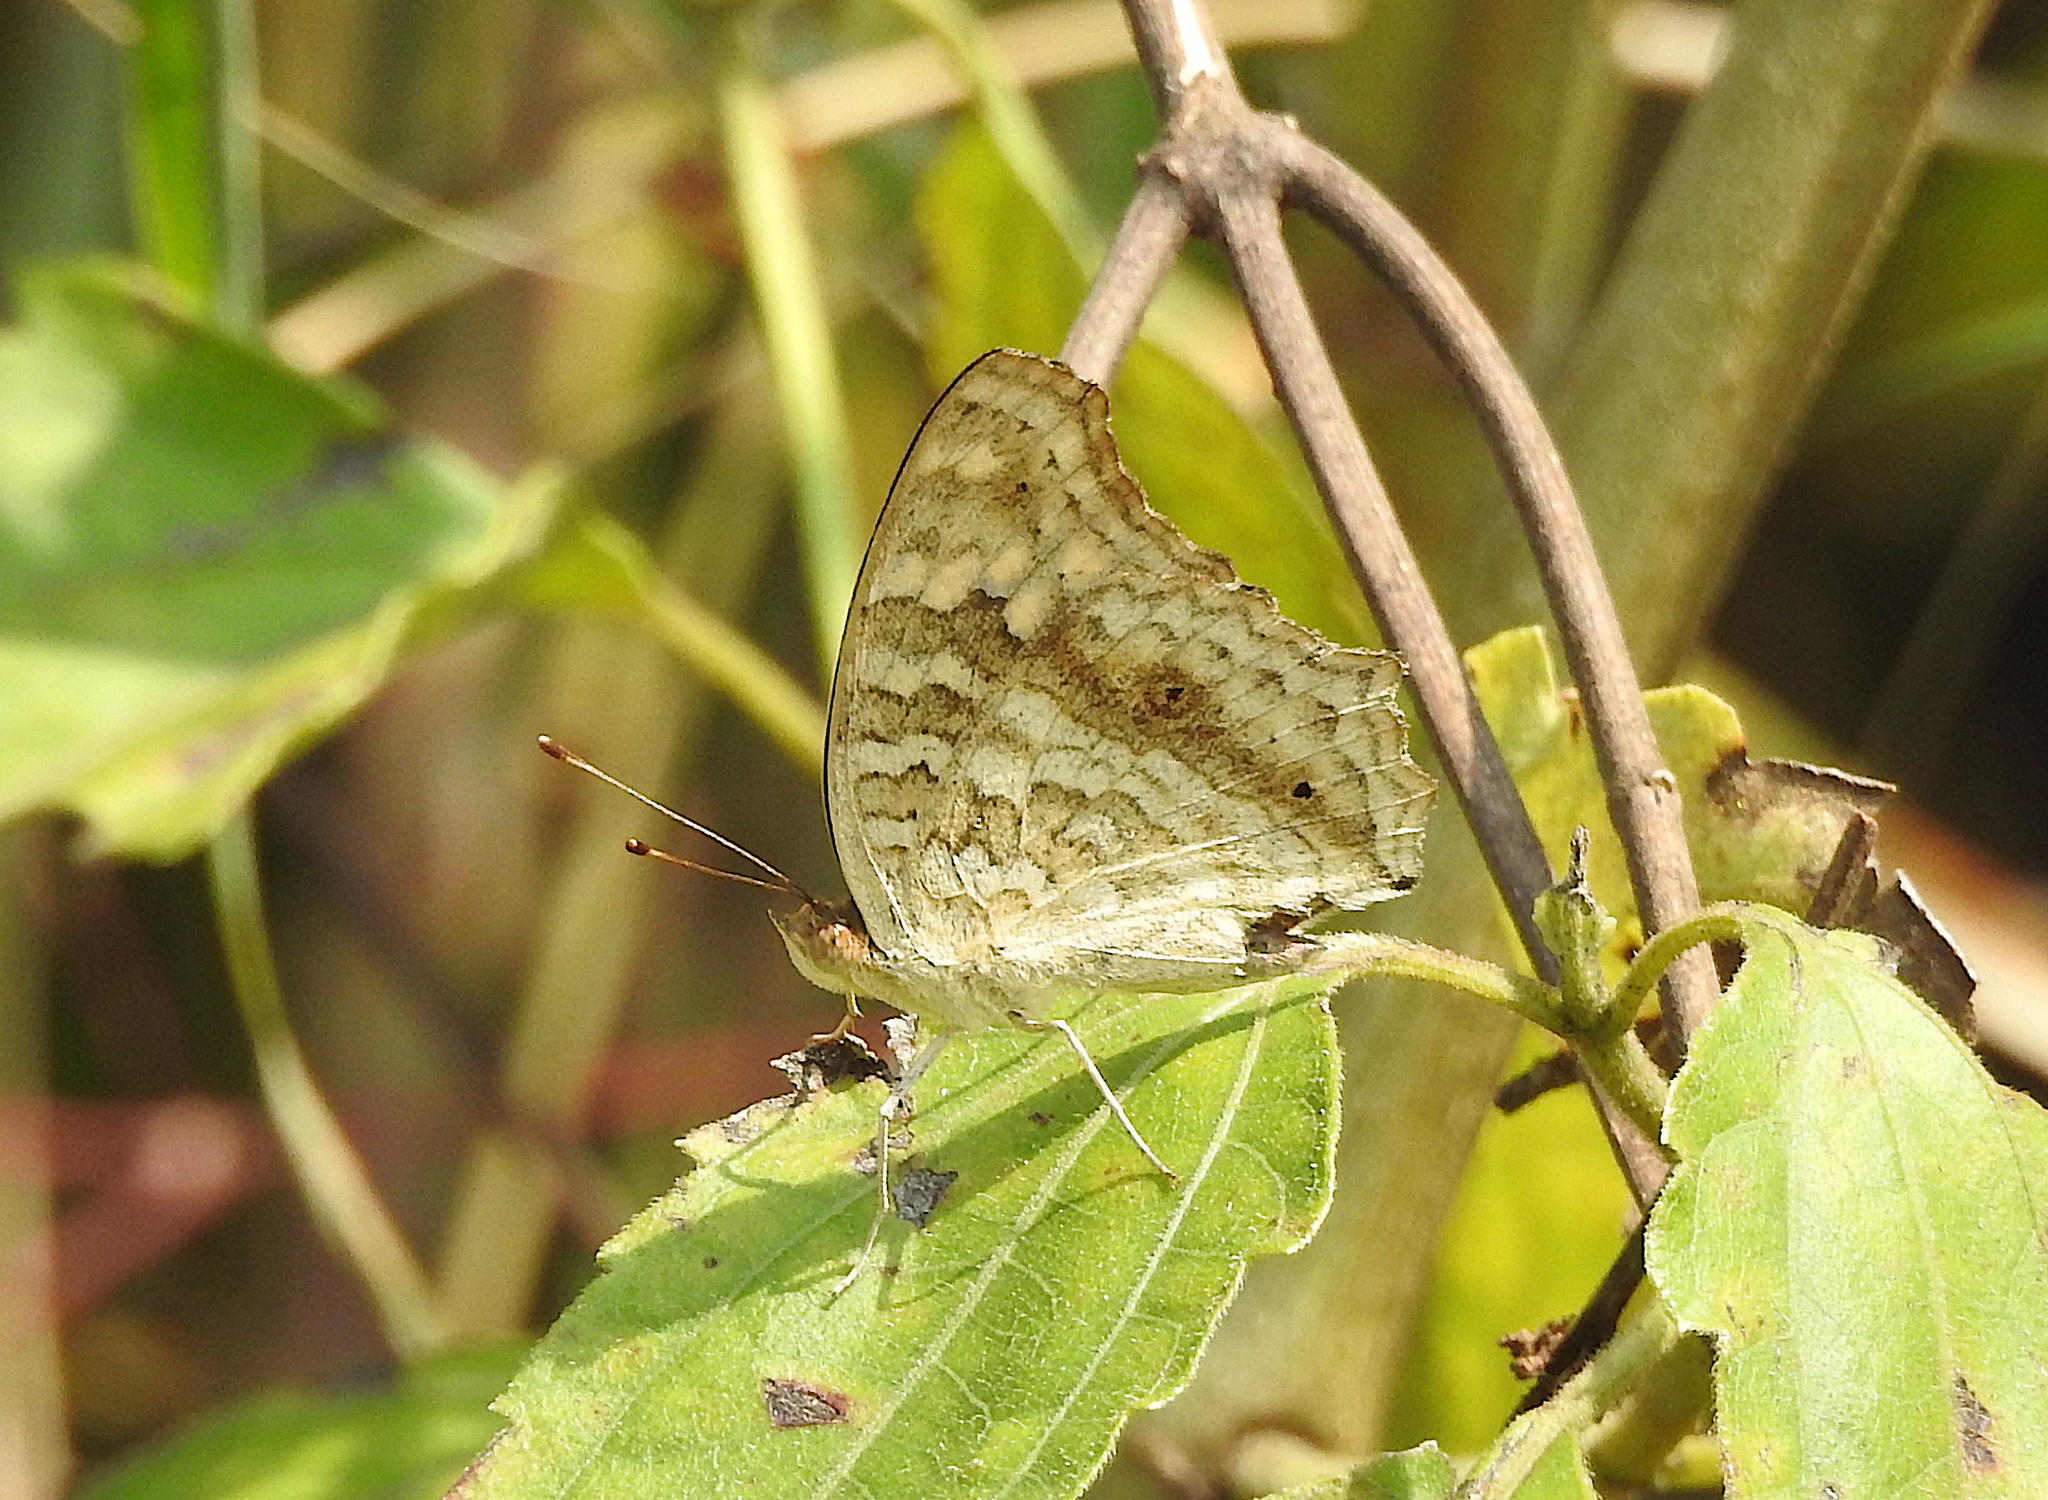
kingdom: Animalia
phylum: Arthropoda
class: Insecta
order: Lepidoptera
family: Nymphalidae
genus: Junonia
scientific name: Junonia lemonias
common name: Lemon pansy
